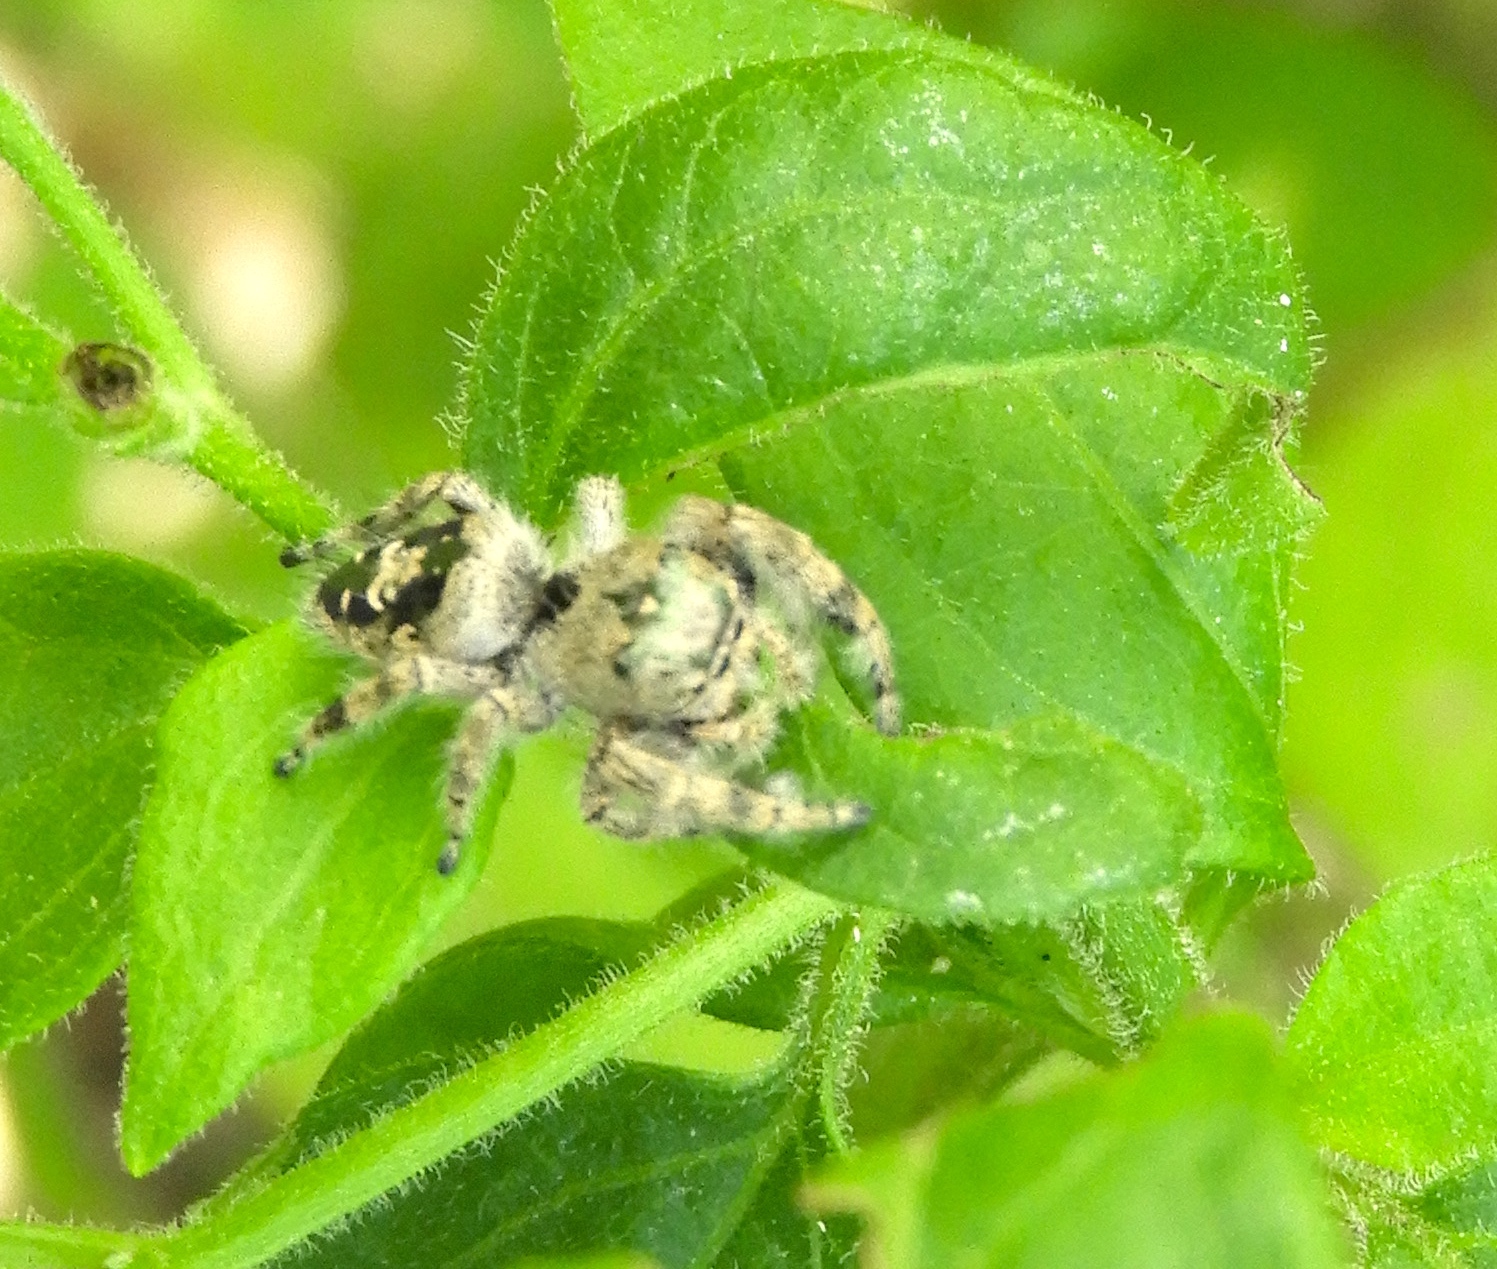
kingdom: Animalia
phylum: Arthropoda
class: Arachnida
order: Araneae
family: Salticidae
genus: Paraphidippus
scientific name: Paraphidippus
